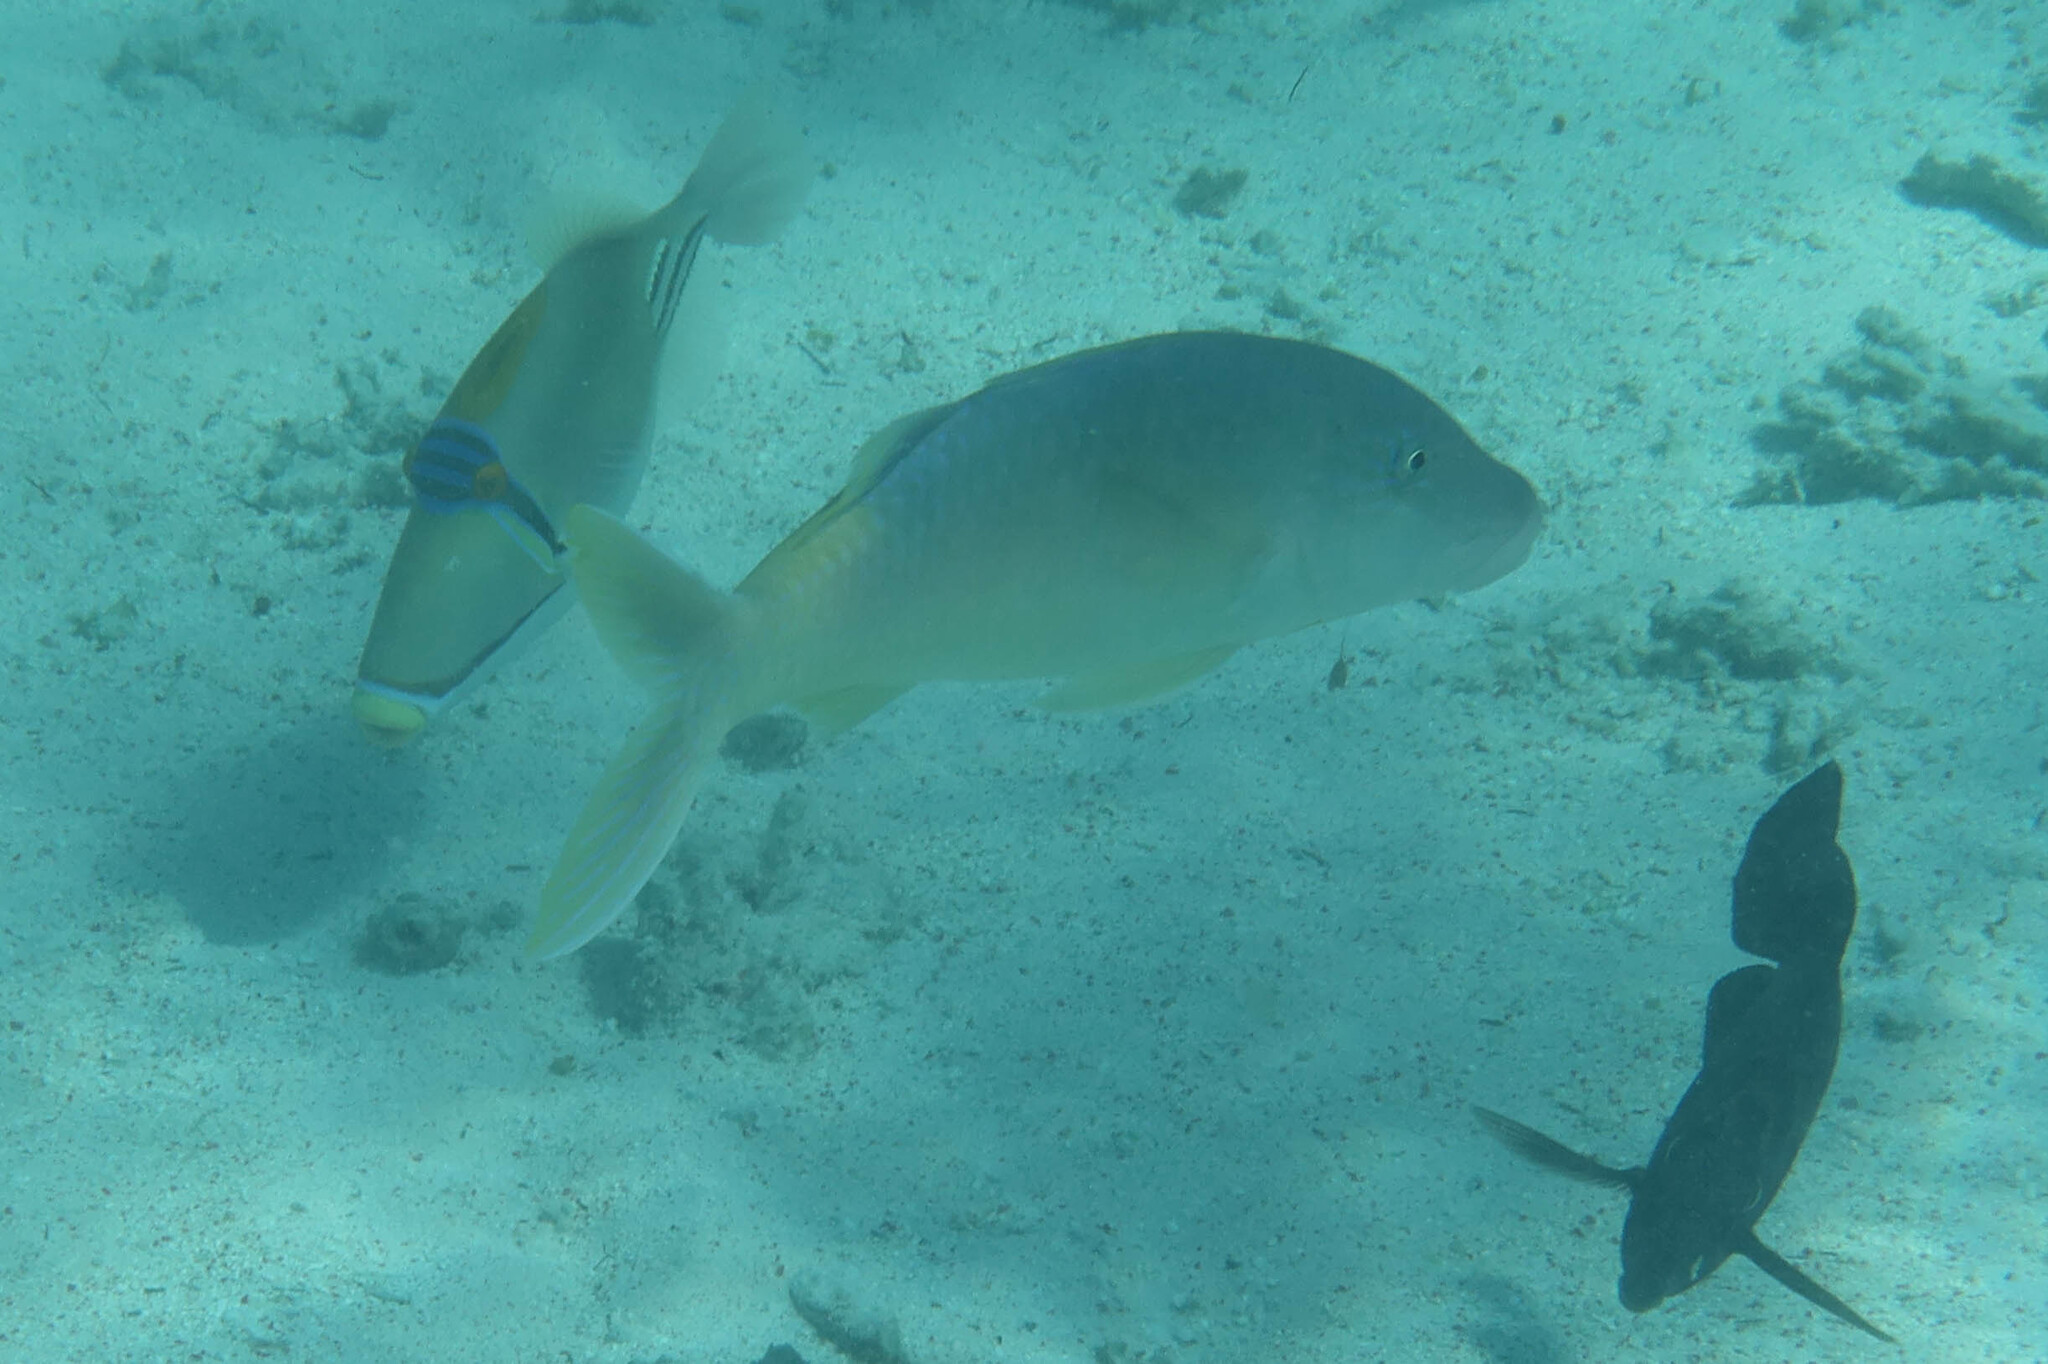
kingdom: Animalia
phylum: Chordata
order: Perciformes
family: Mullidae
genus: Parupeneus
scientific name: Parupeneus cyclostomus
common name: Goldsaddle goatfish
